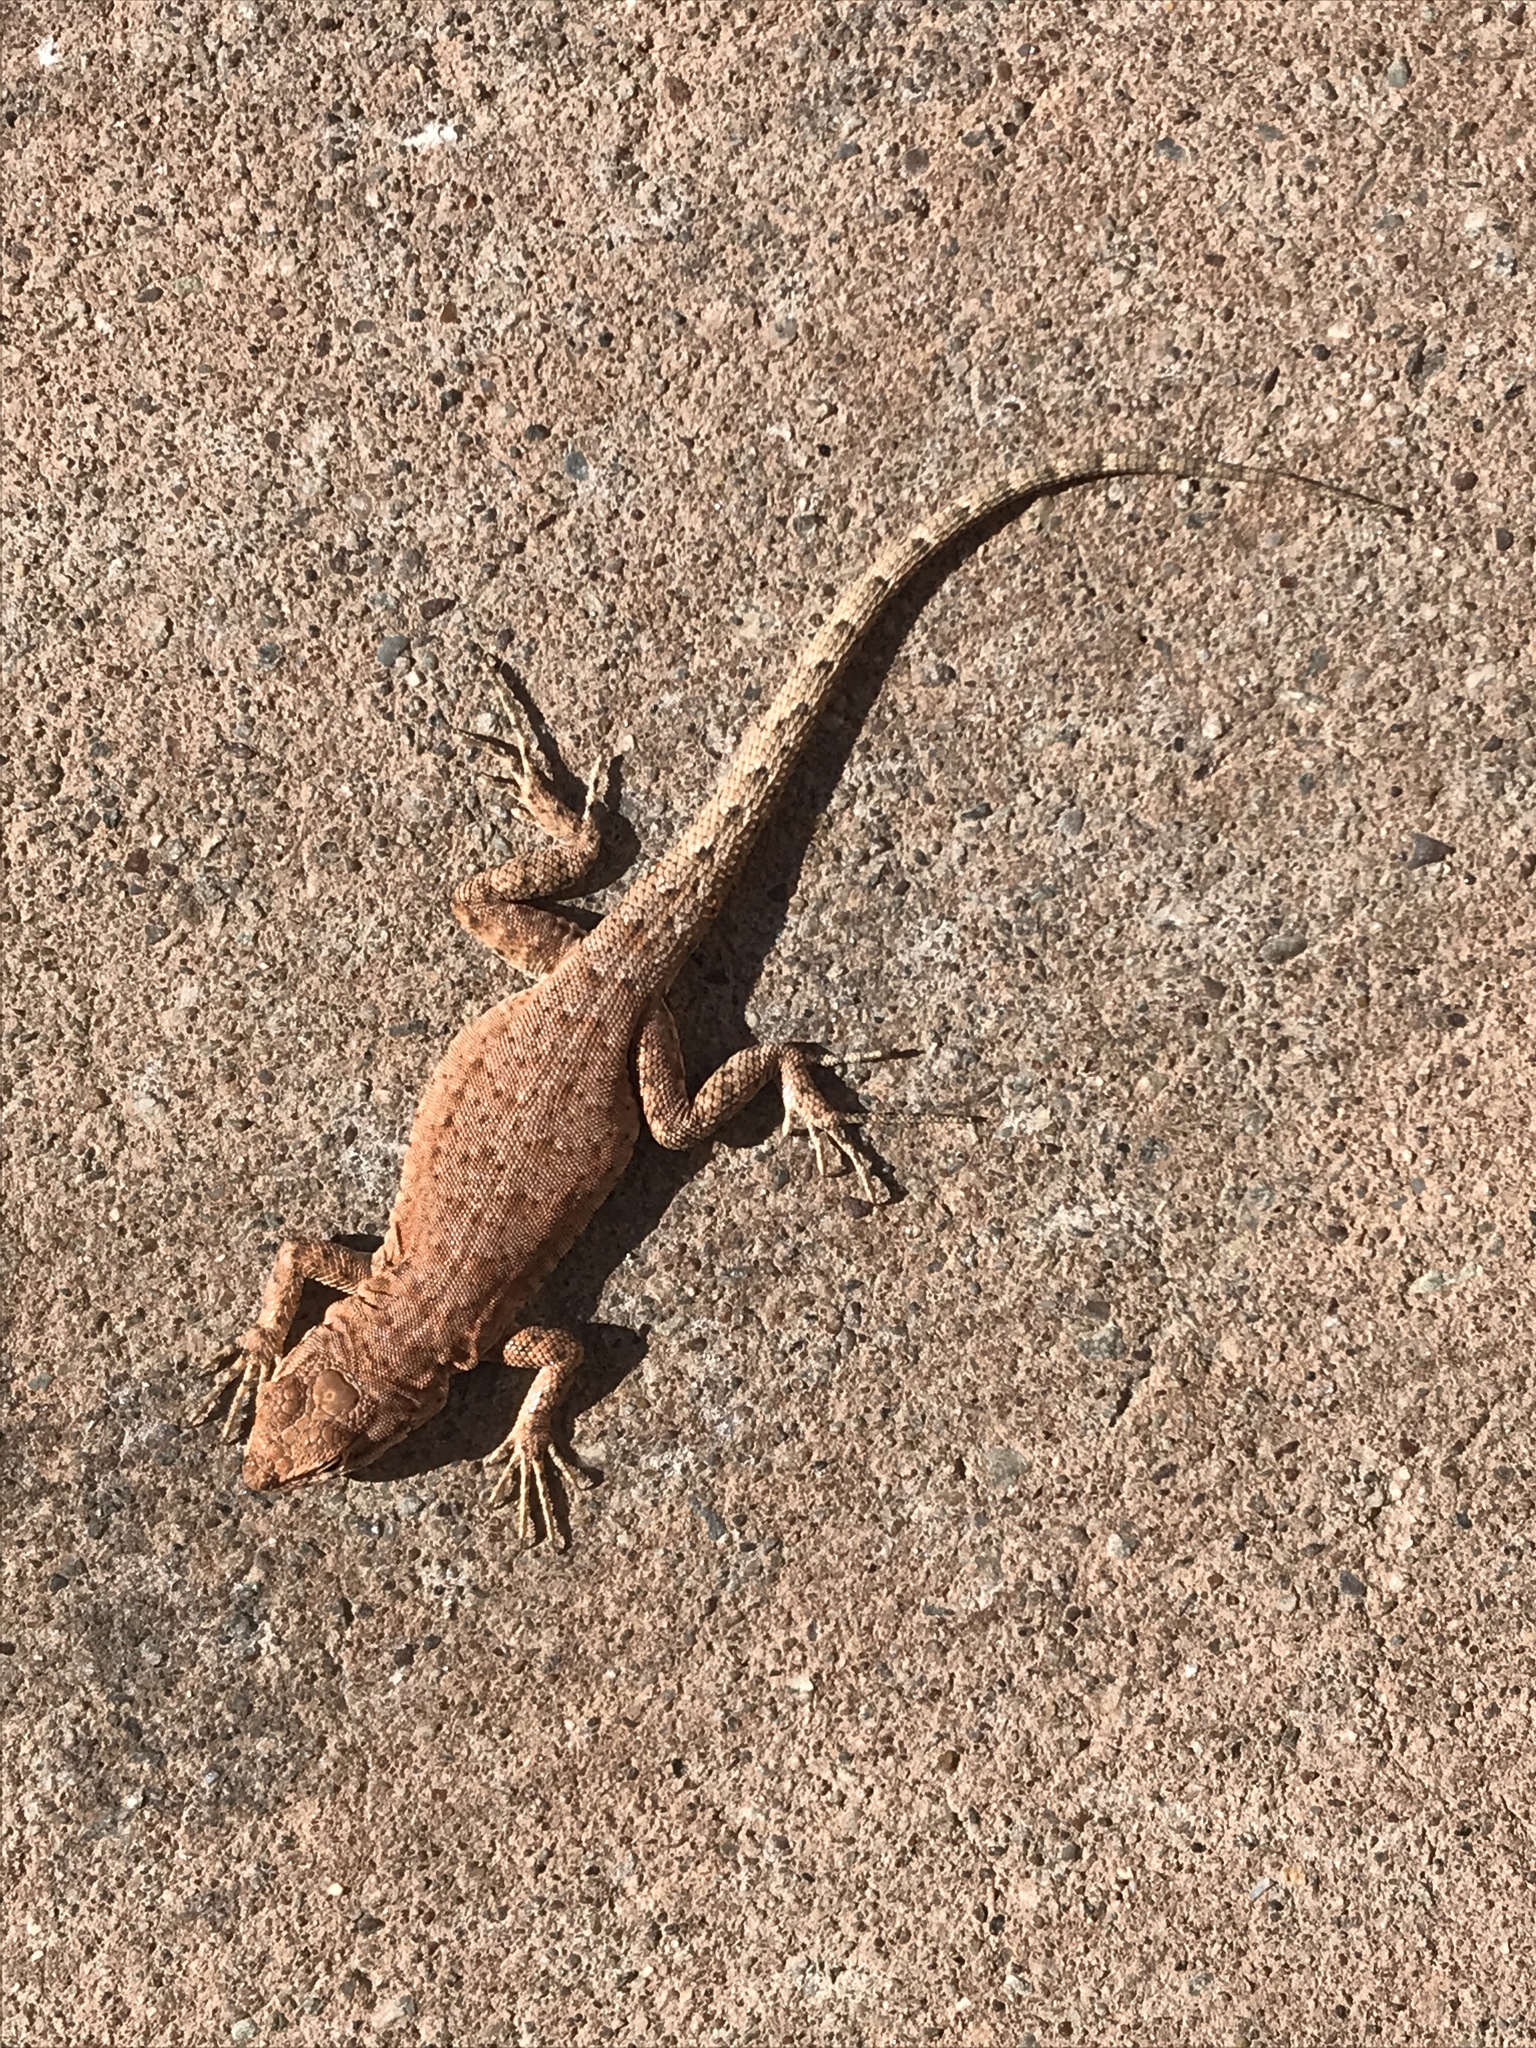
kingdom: Animalia
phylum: Chordata
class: Squamata
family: Phrynosomatidae
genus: Uta
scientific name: Uta stansburiana
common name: Side-blotched lizard
